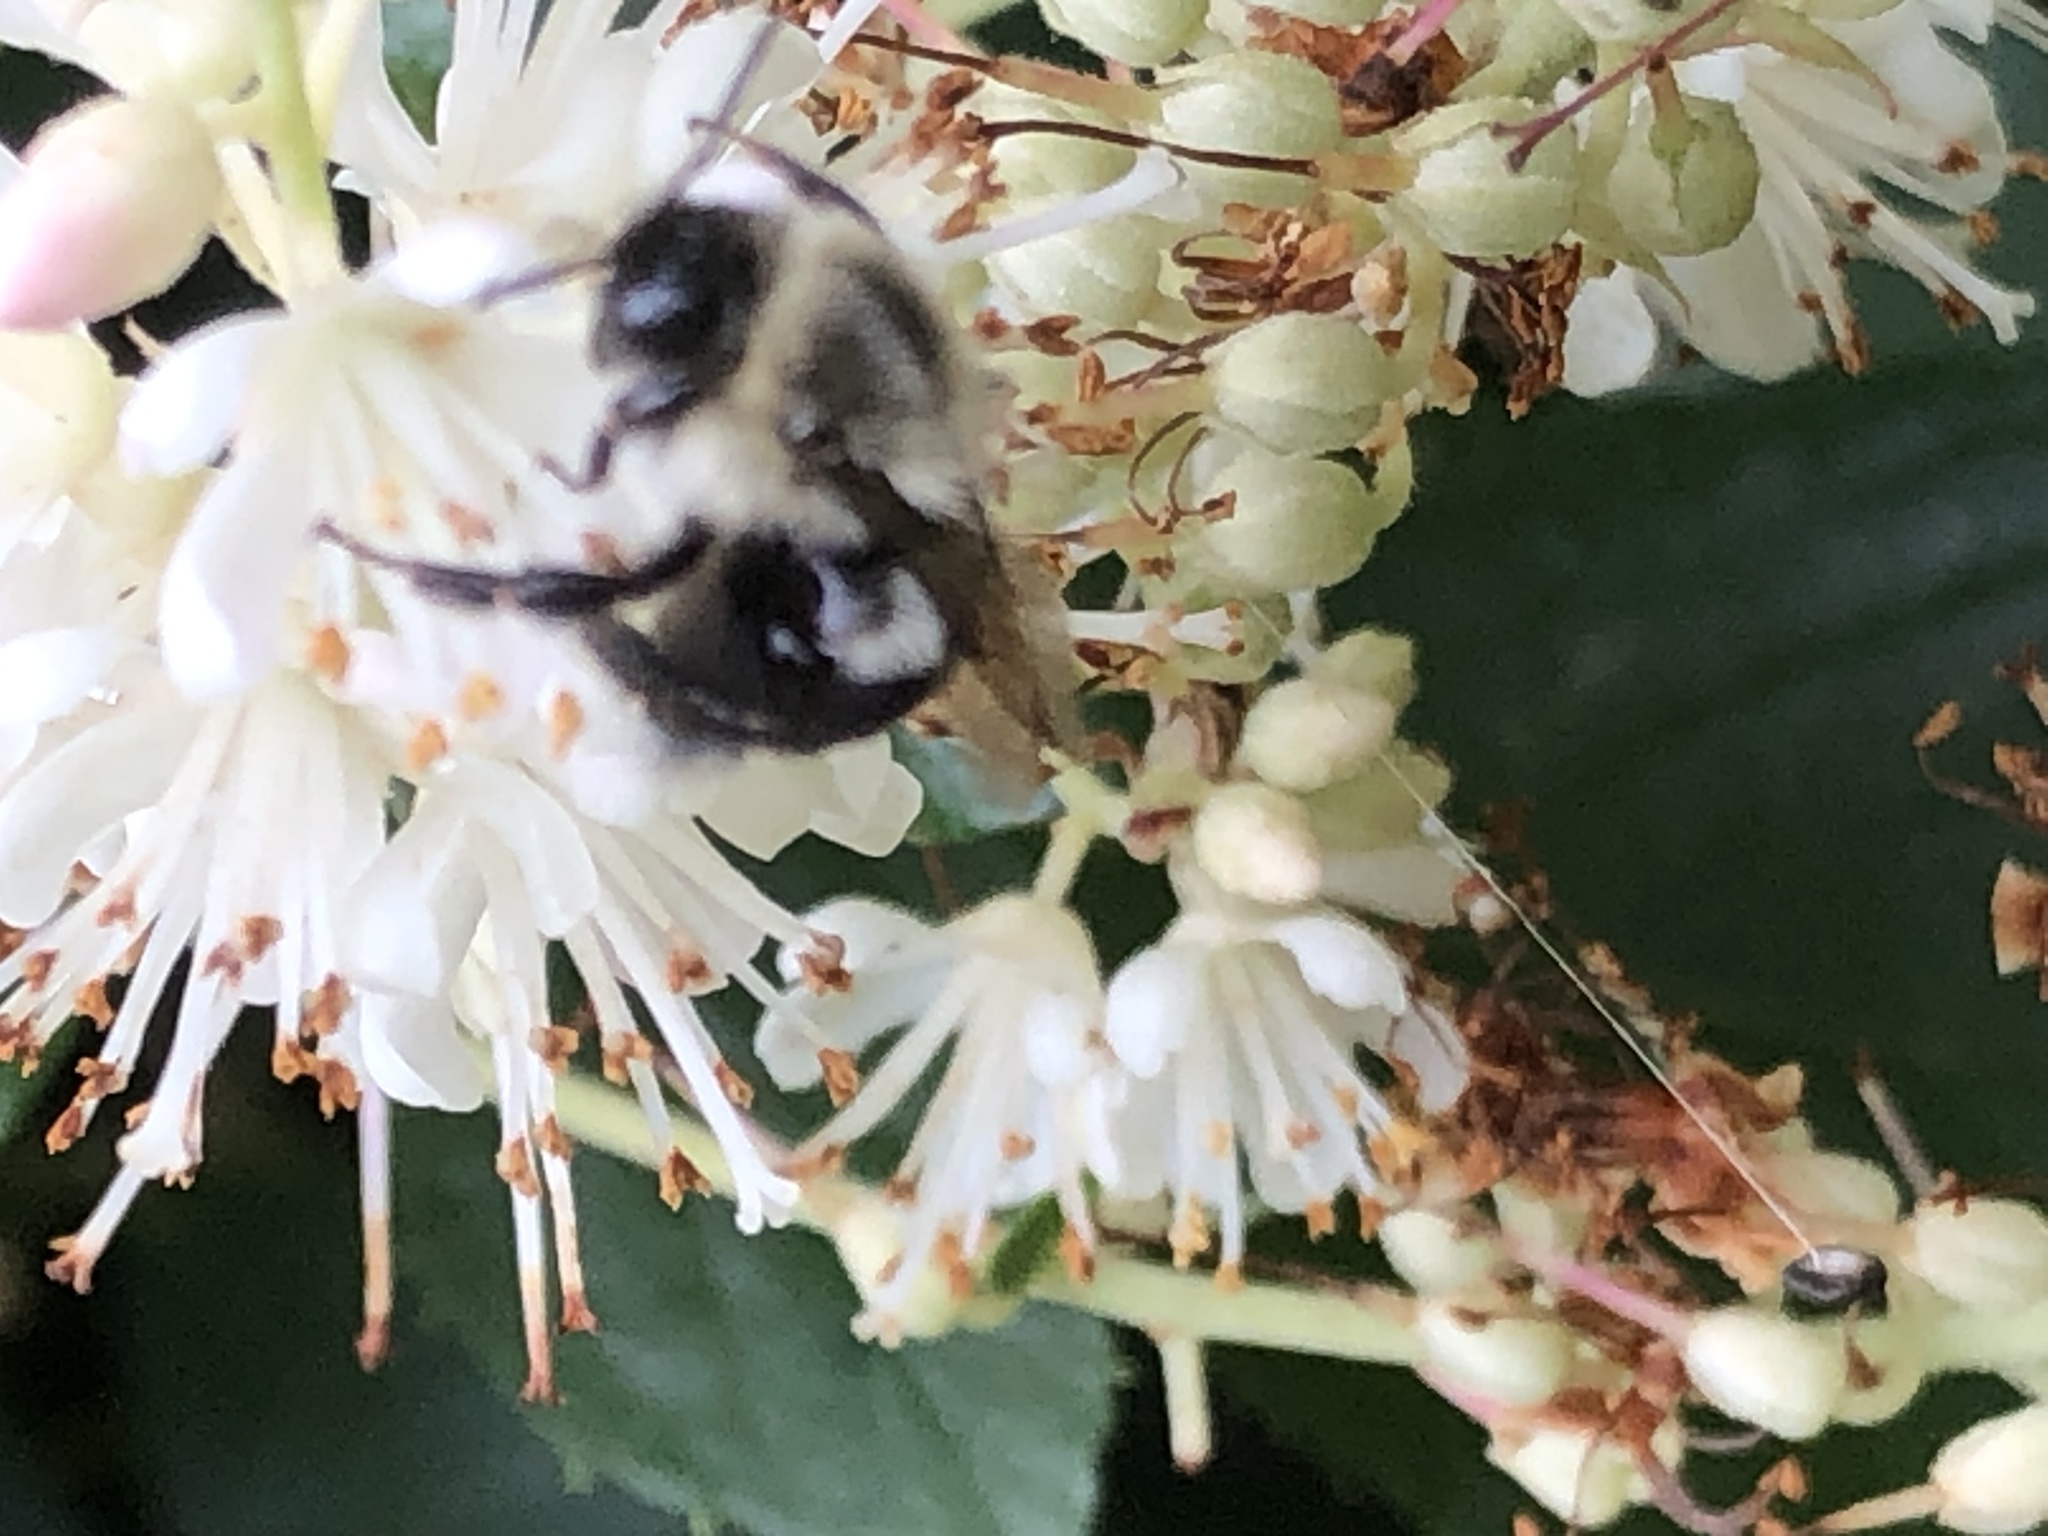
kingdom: Animalia
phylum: Arthropoda
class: Insecta
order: Hymenoptera
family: Apidae
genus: Bombus
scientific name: Bombus impatiens
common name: Common eastern bumble bee
